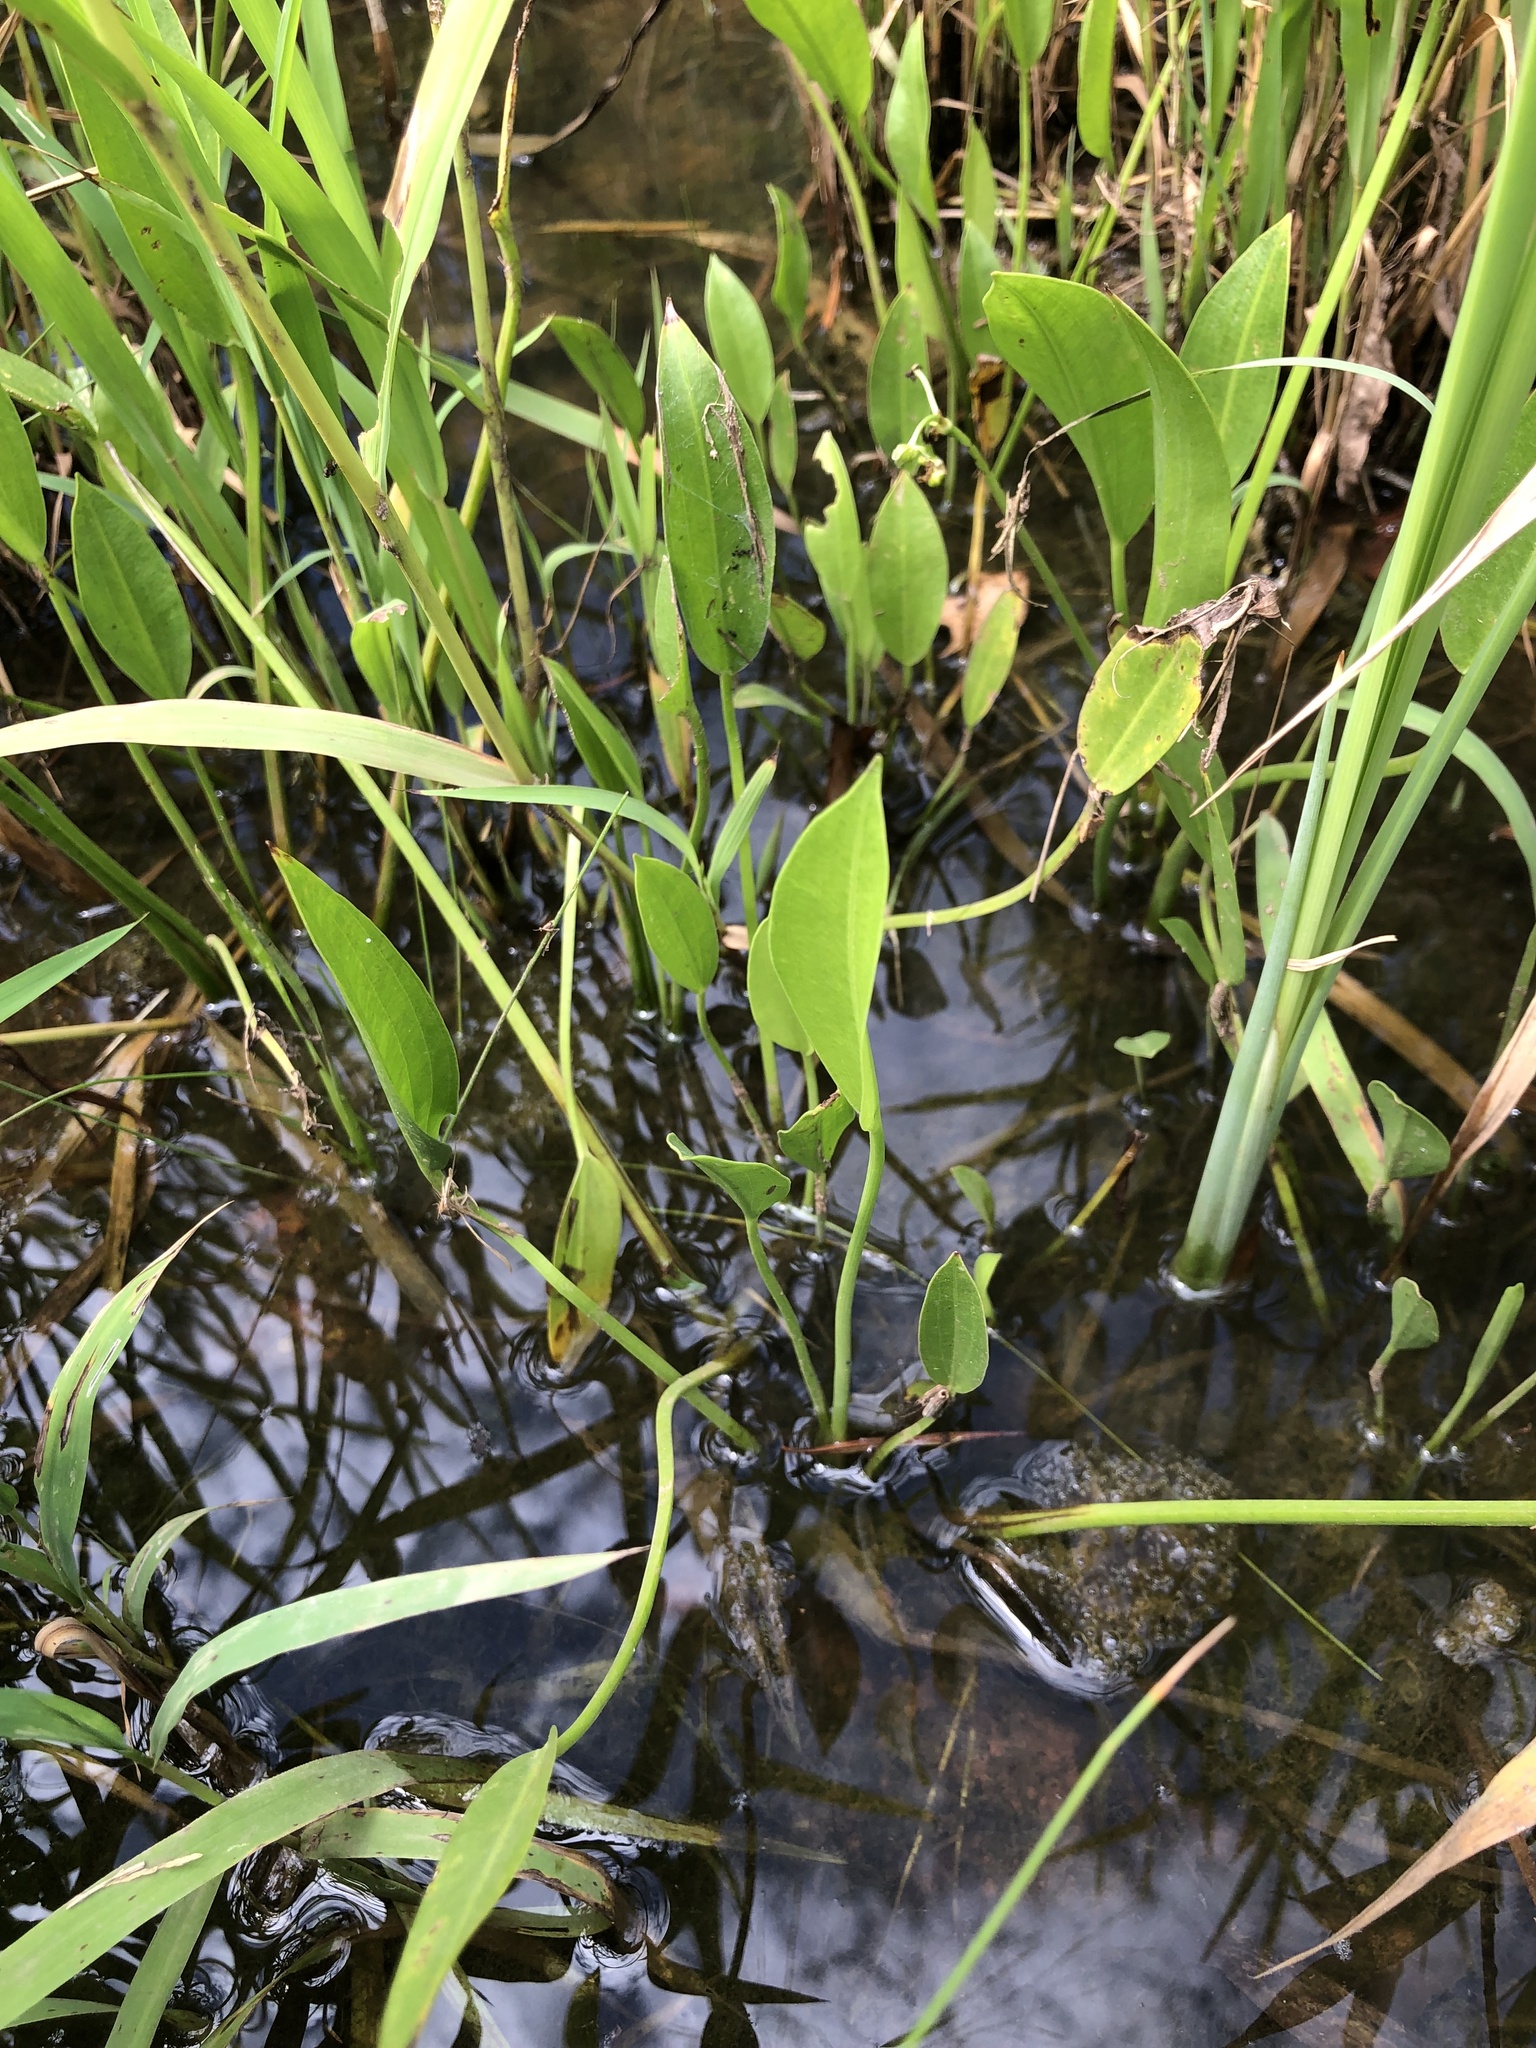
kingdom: Plantae
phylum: Tracheophyta
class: Liliopsida
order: Alismatales
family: Alismataceae
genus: Sagittaria
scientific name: Sagittaria platyphylla
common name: Broad-leaf arrowhead
